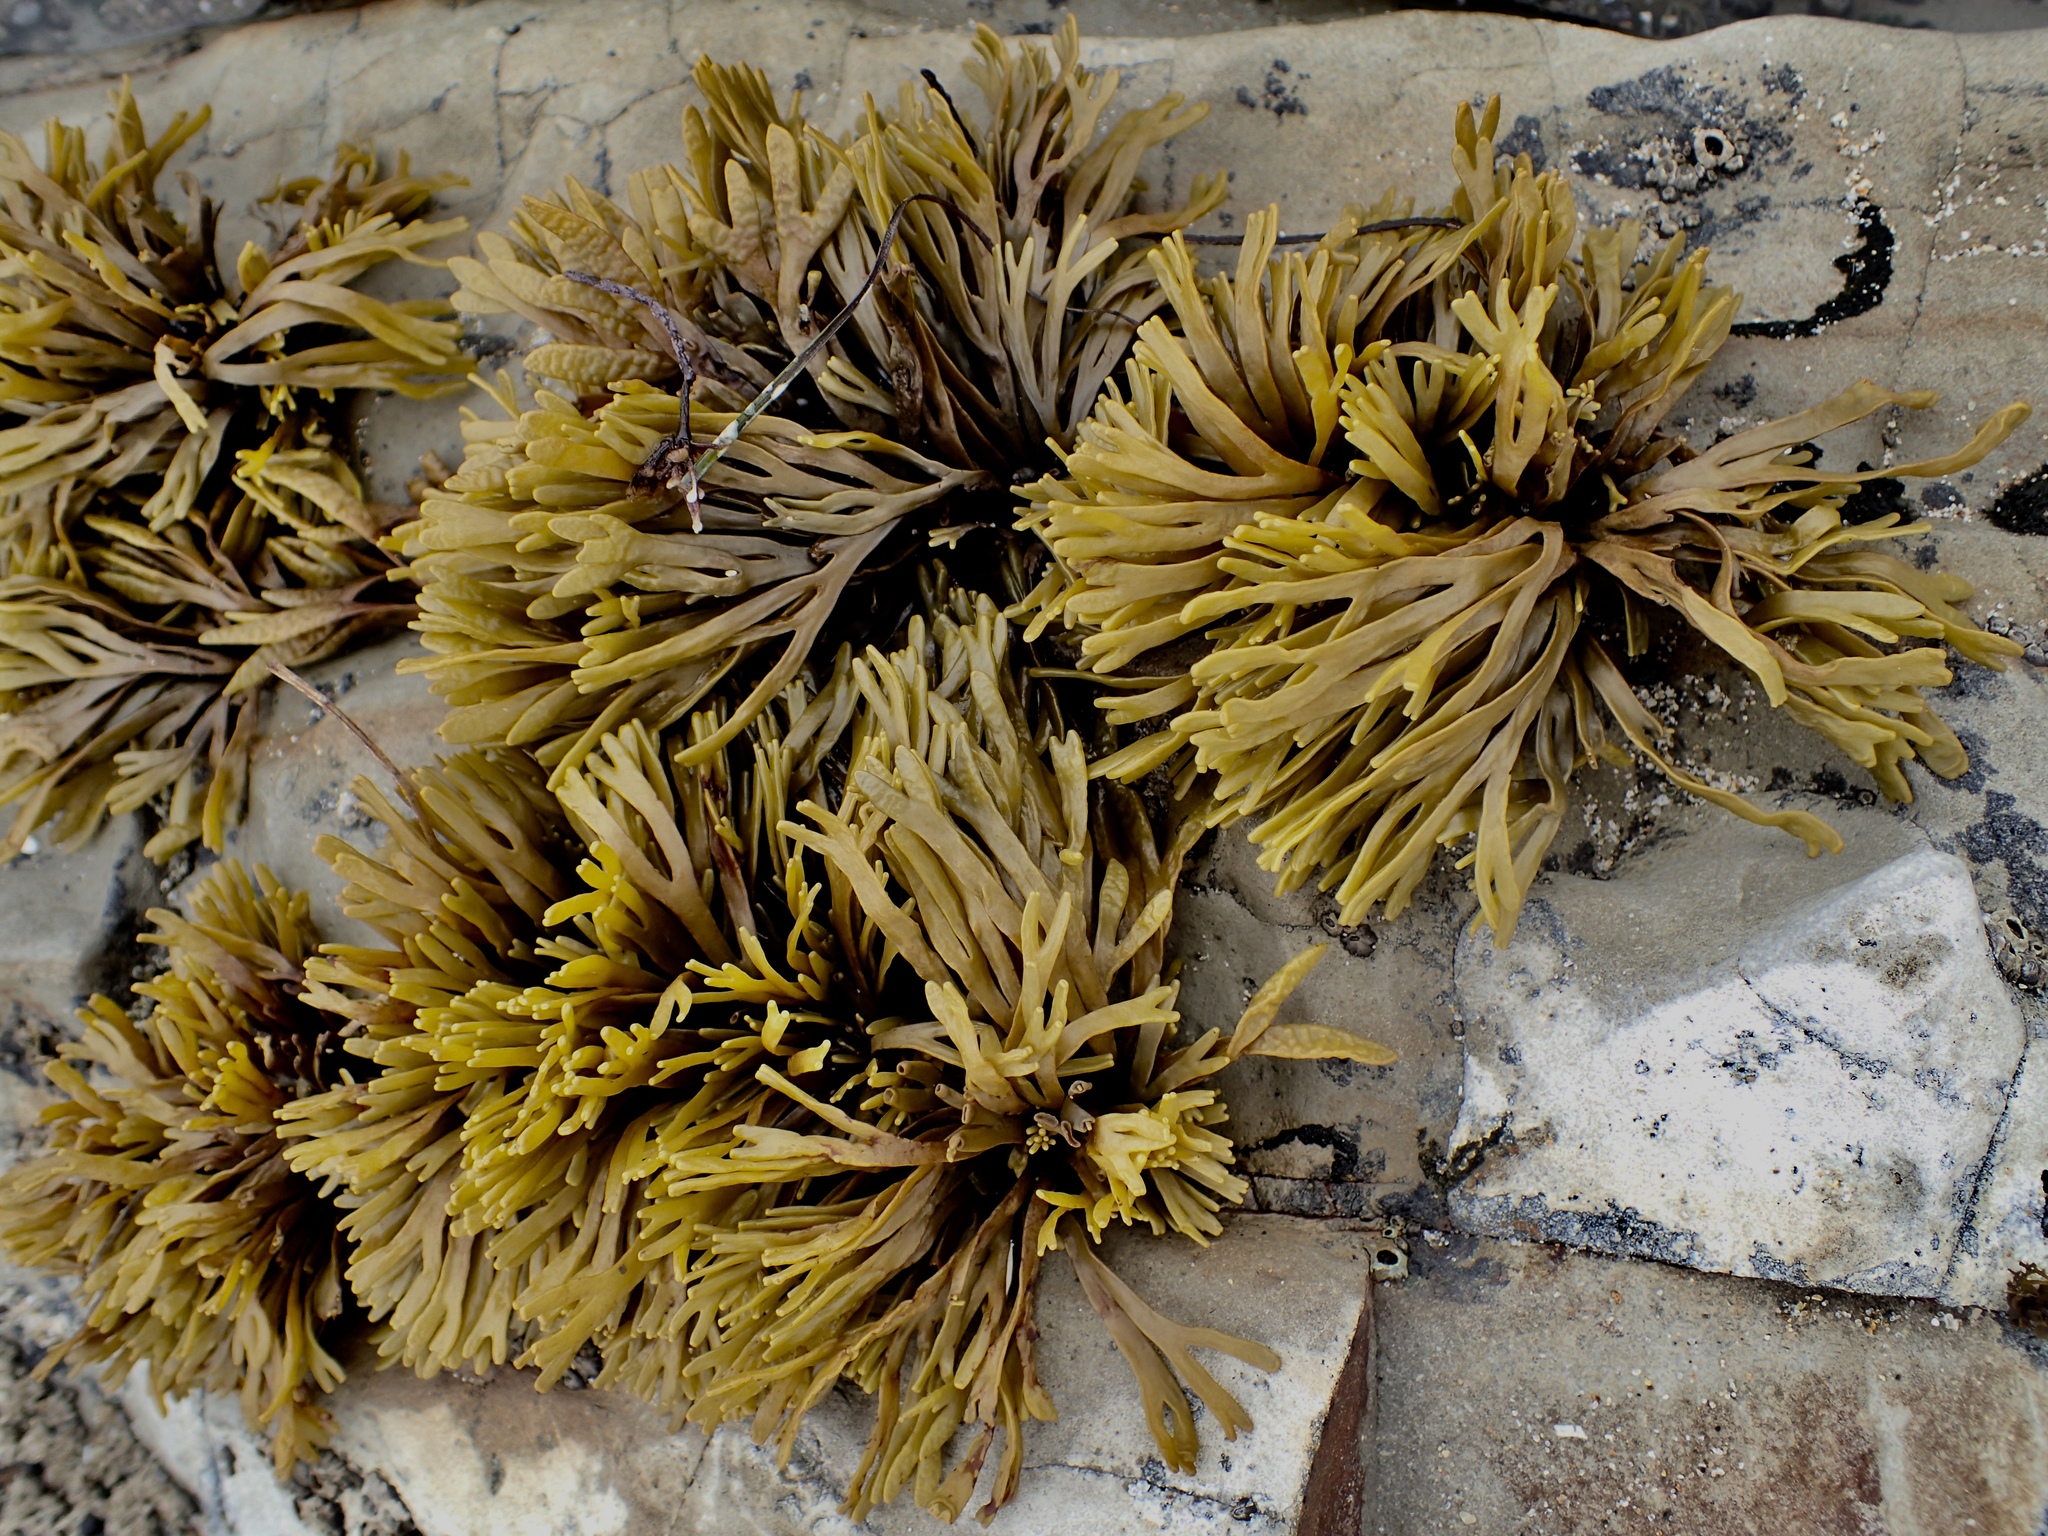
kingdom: Chromista
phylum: Ochrophyta
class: Phaeophyceae
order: Fucales
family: Fucaceae
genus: Pelvetiopsis
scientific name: Pelvetiopsis limitata
